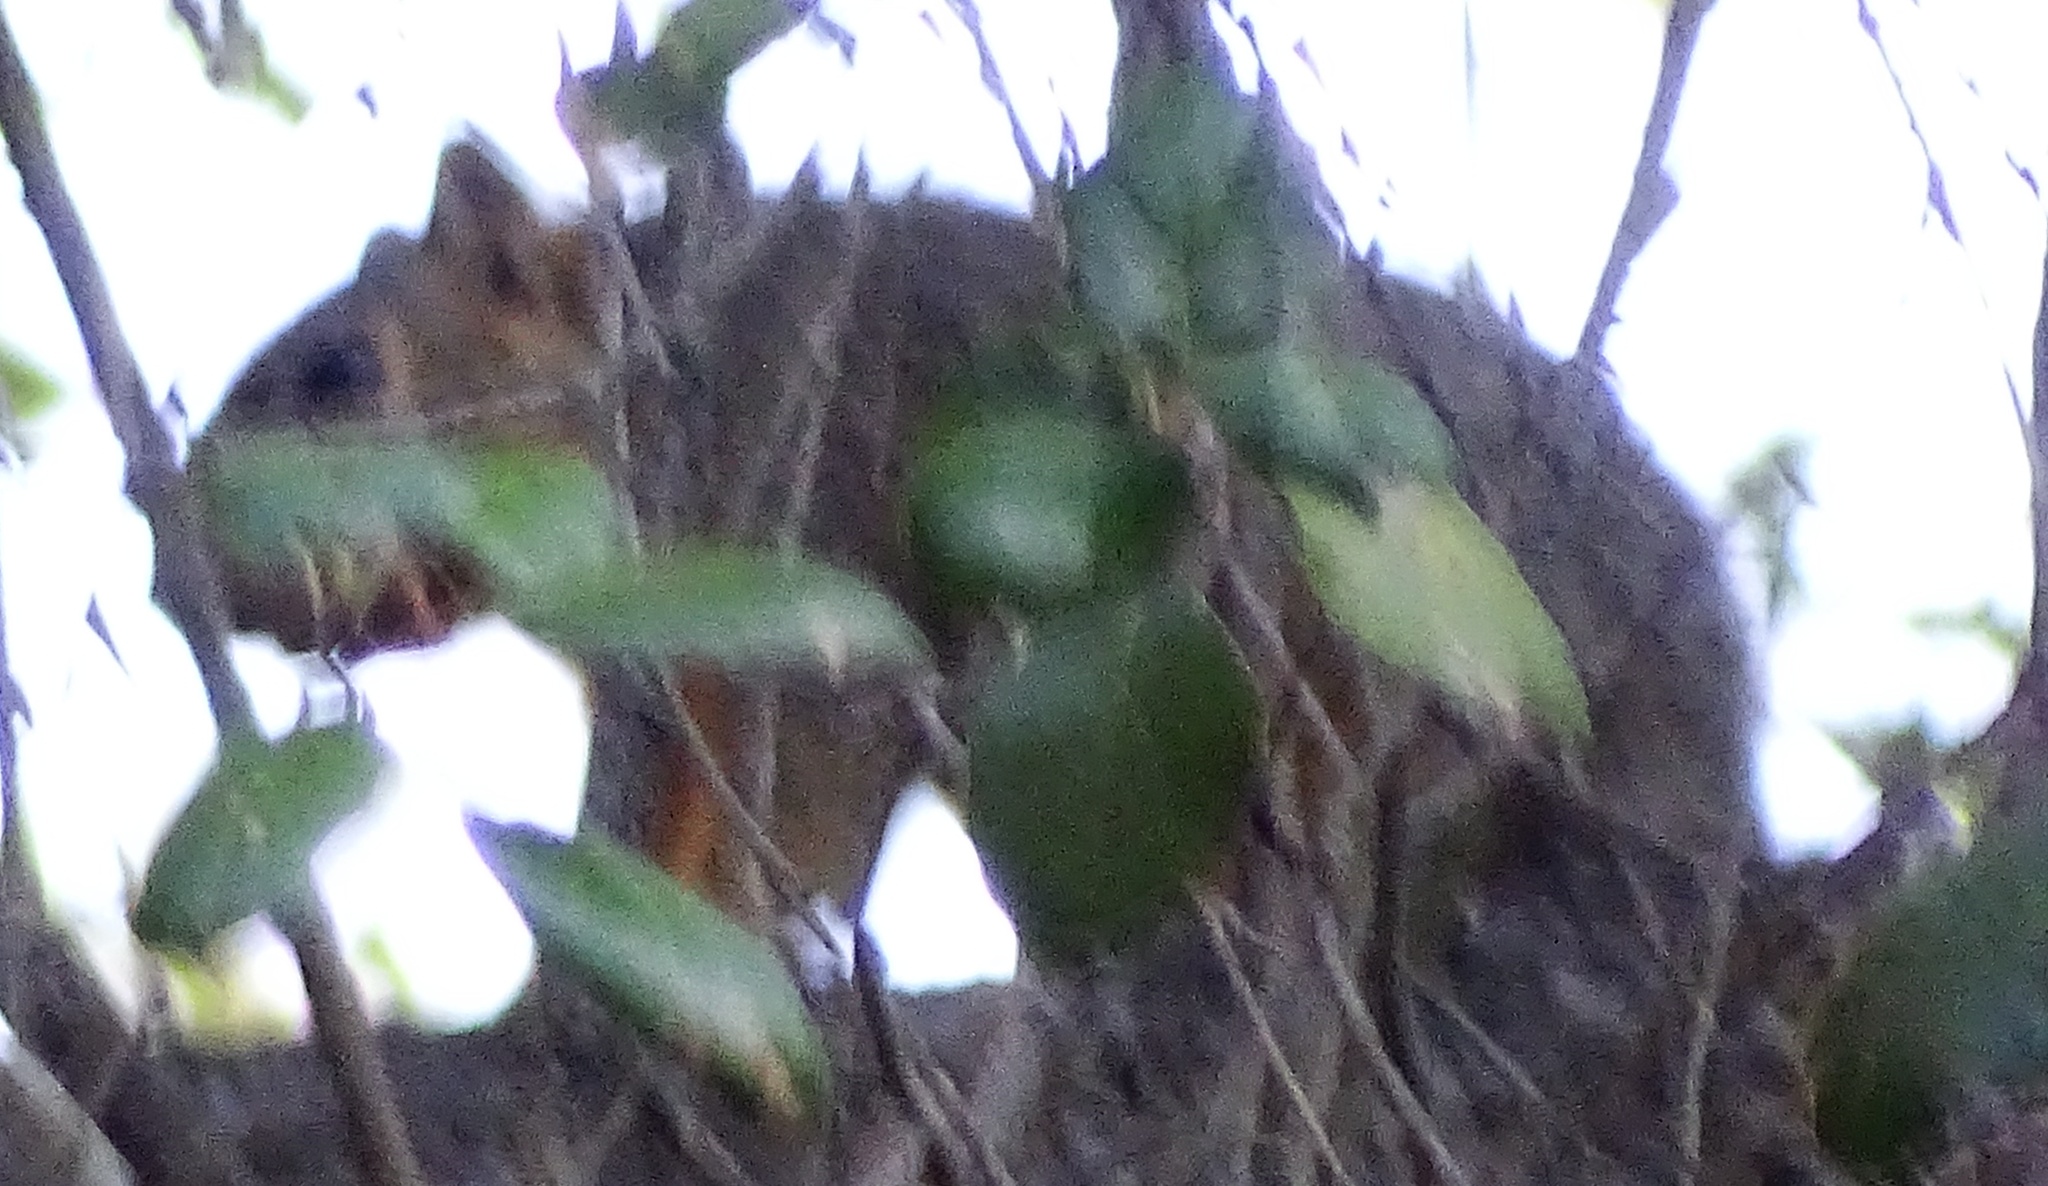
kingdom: Animalia
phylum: Chordata
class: Mammalia
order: Rodentia
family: Sciuridae
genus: Sciurus
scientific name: Sciurus niger
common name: Fox squirrel
